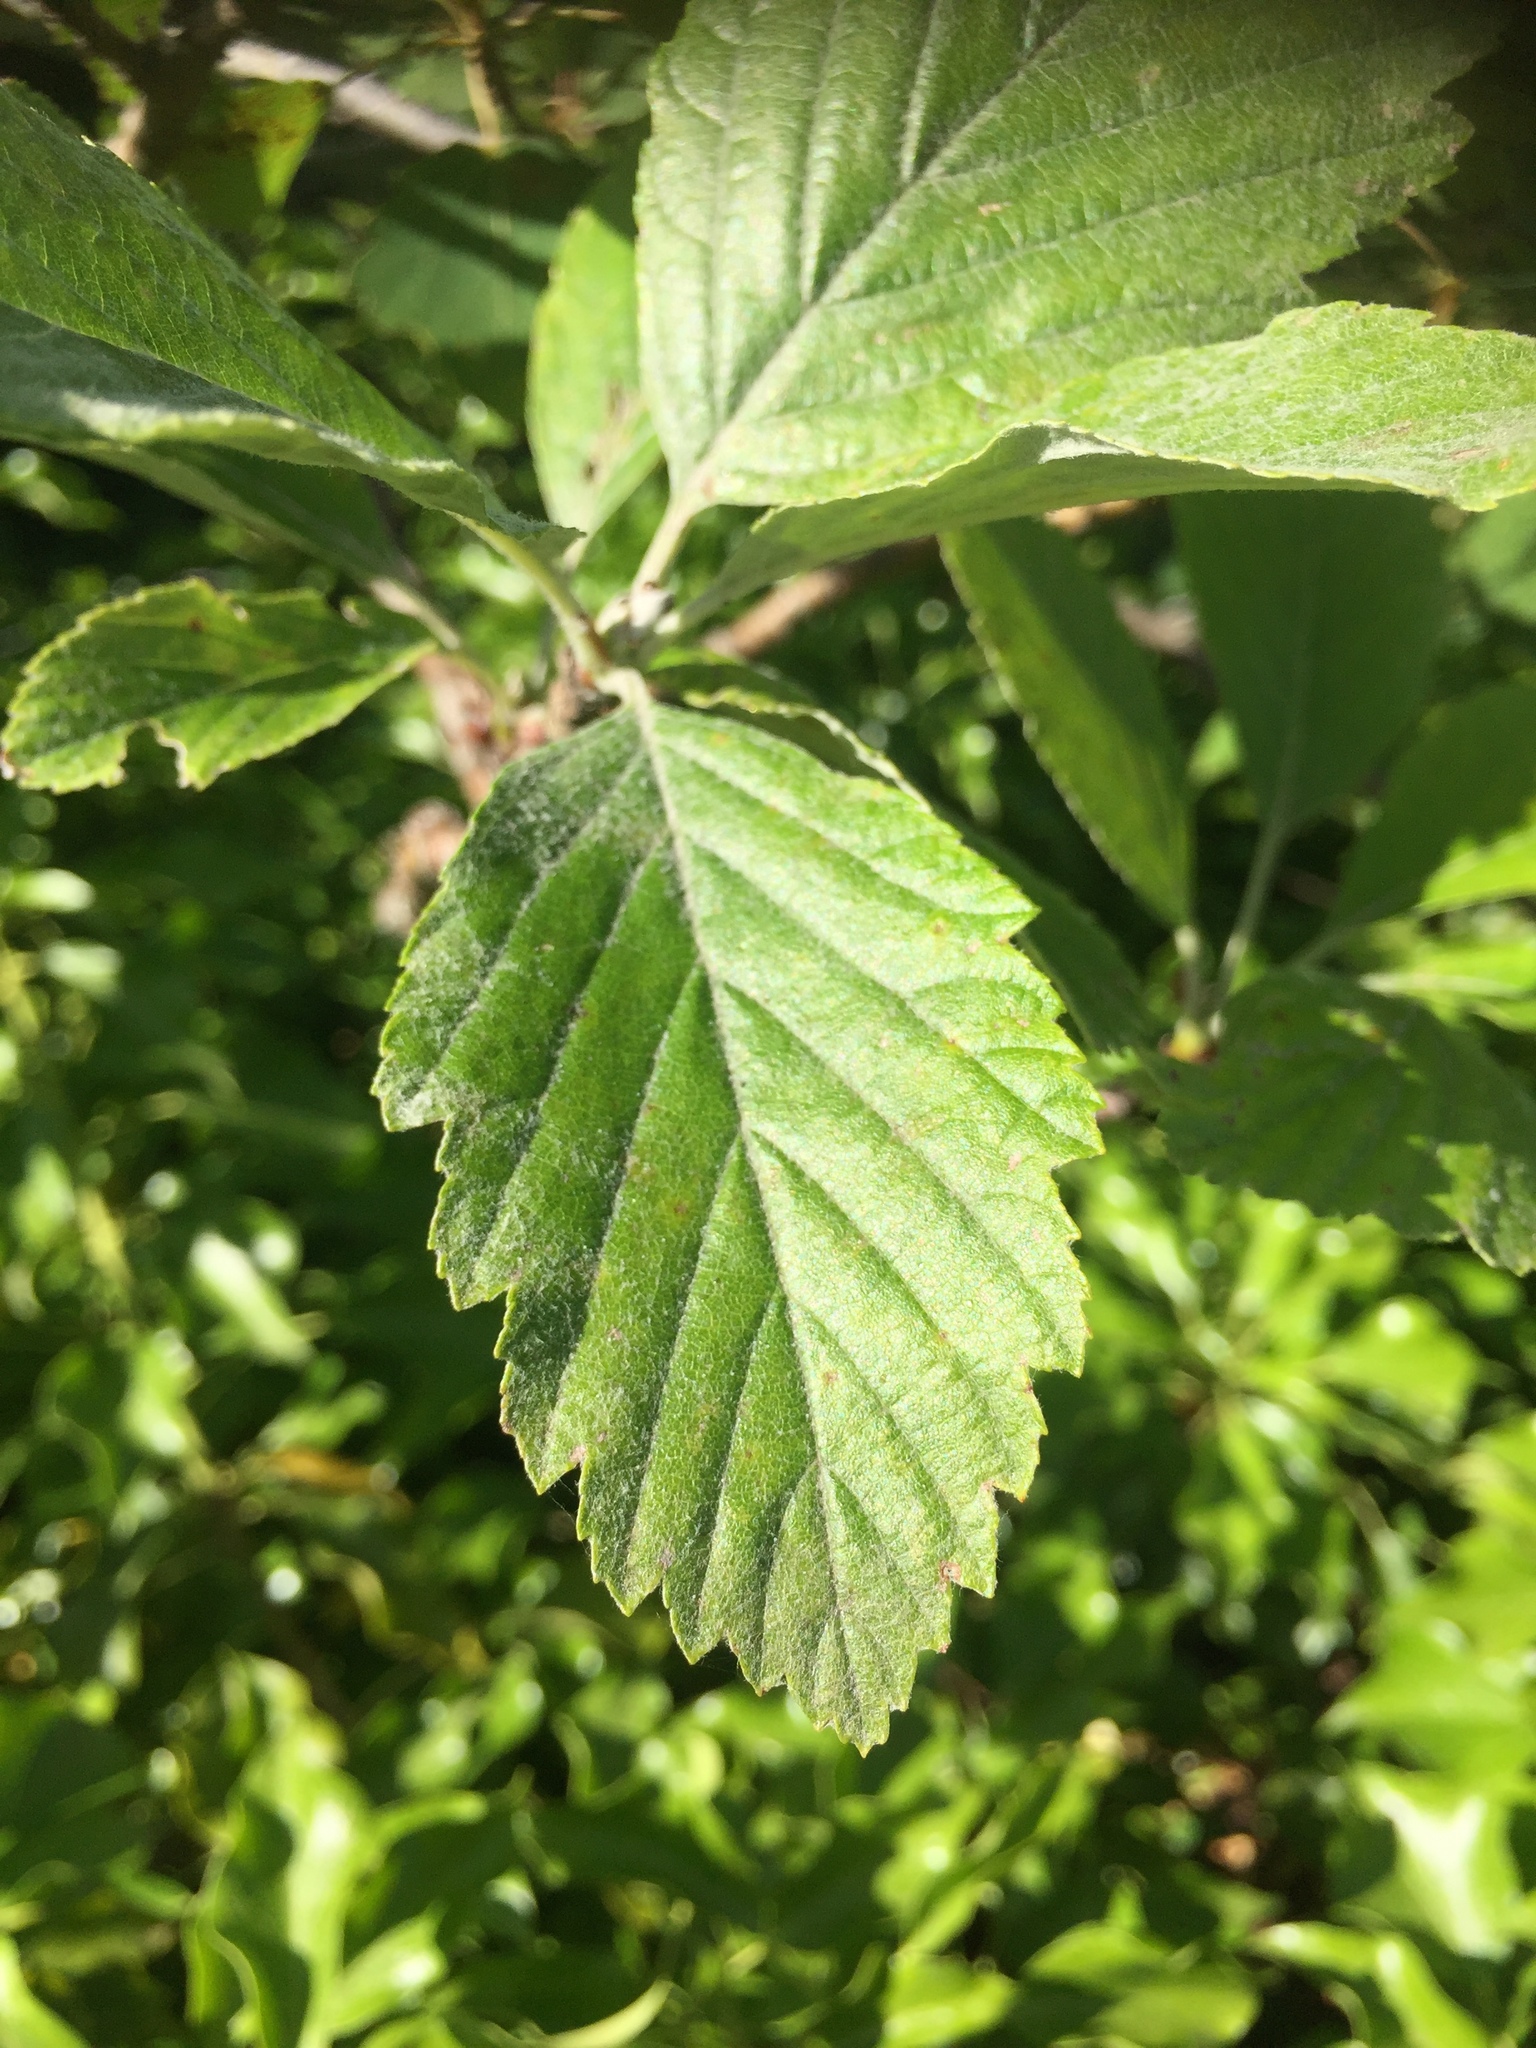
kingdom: Plantae
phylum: Tracheophyta
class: Magnoliopsida
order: Rosales
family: Rosaceae
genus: Aria
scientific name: Aria edulis
